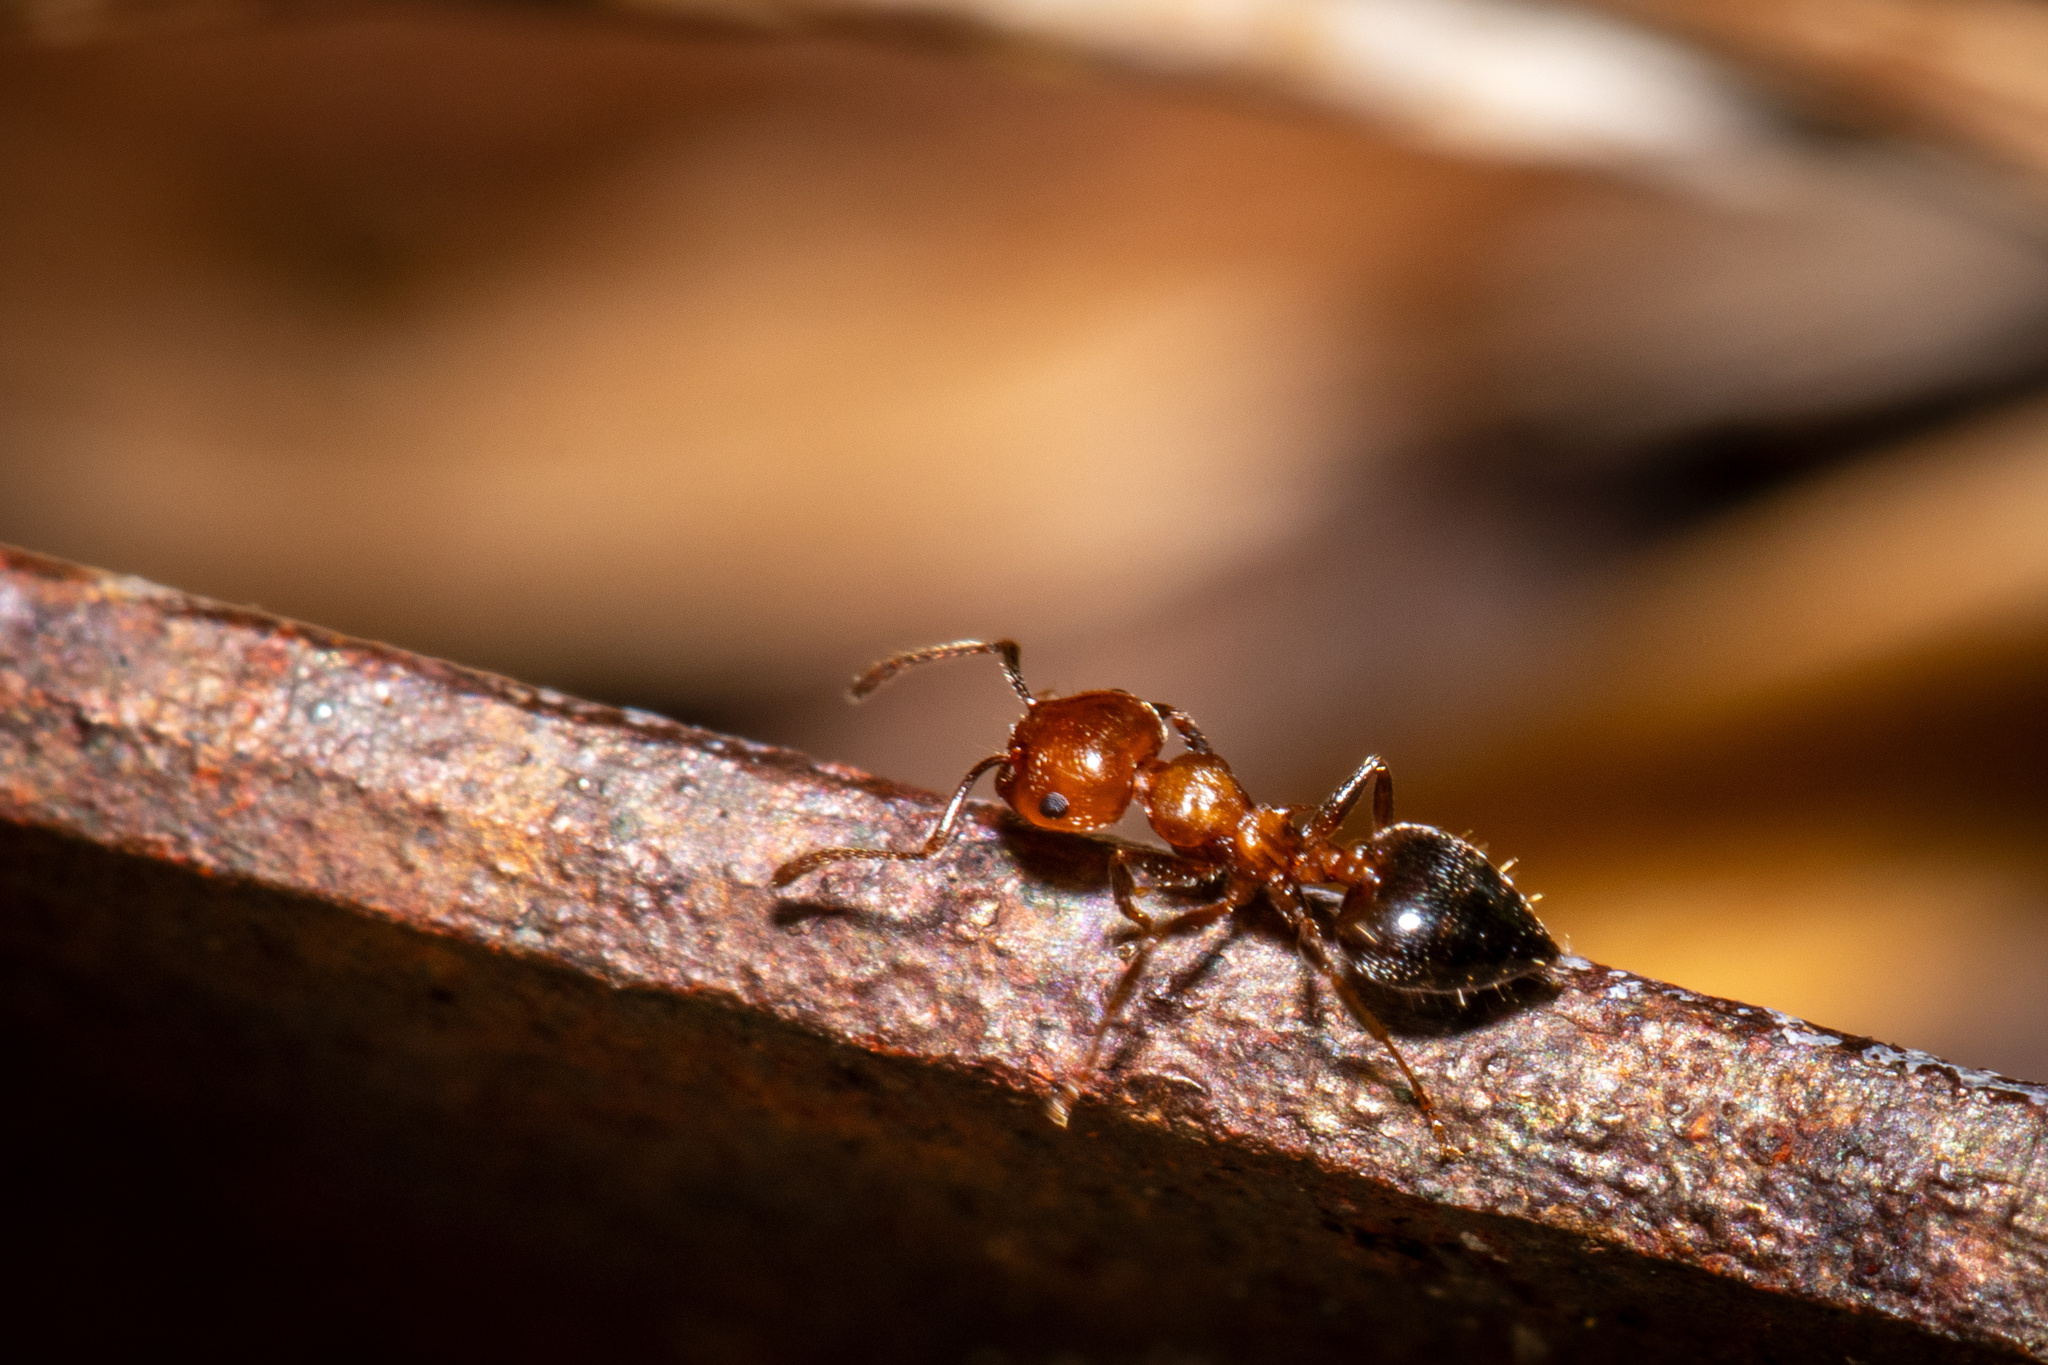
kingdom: Animalia
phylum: Arthropoda
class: Insecta
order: Hymenoptera
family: Formicidae
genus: Crematogaster
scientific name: Crematogaster laeviuscula
